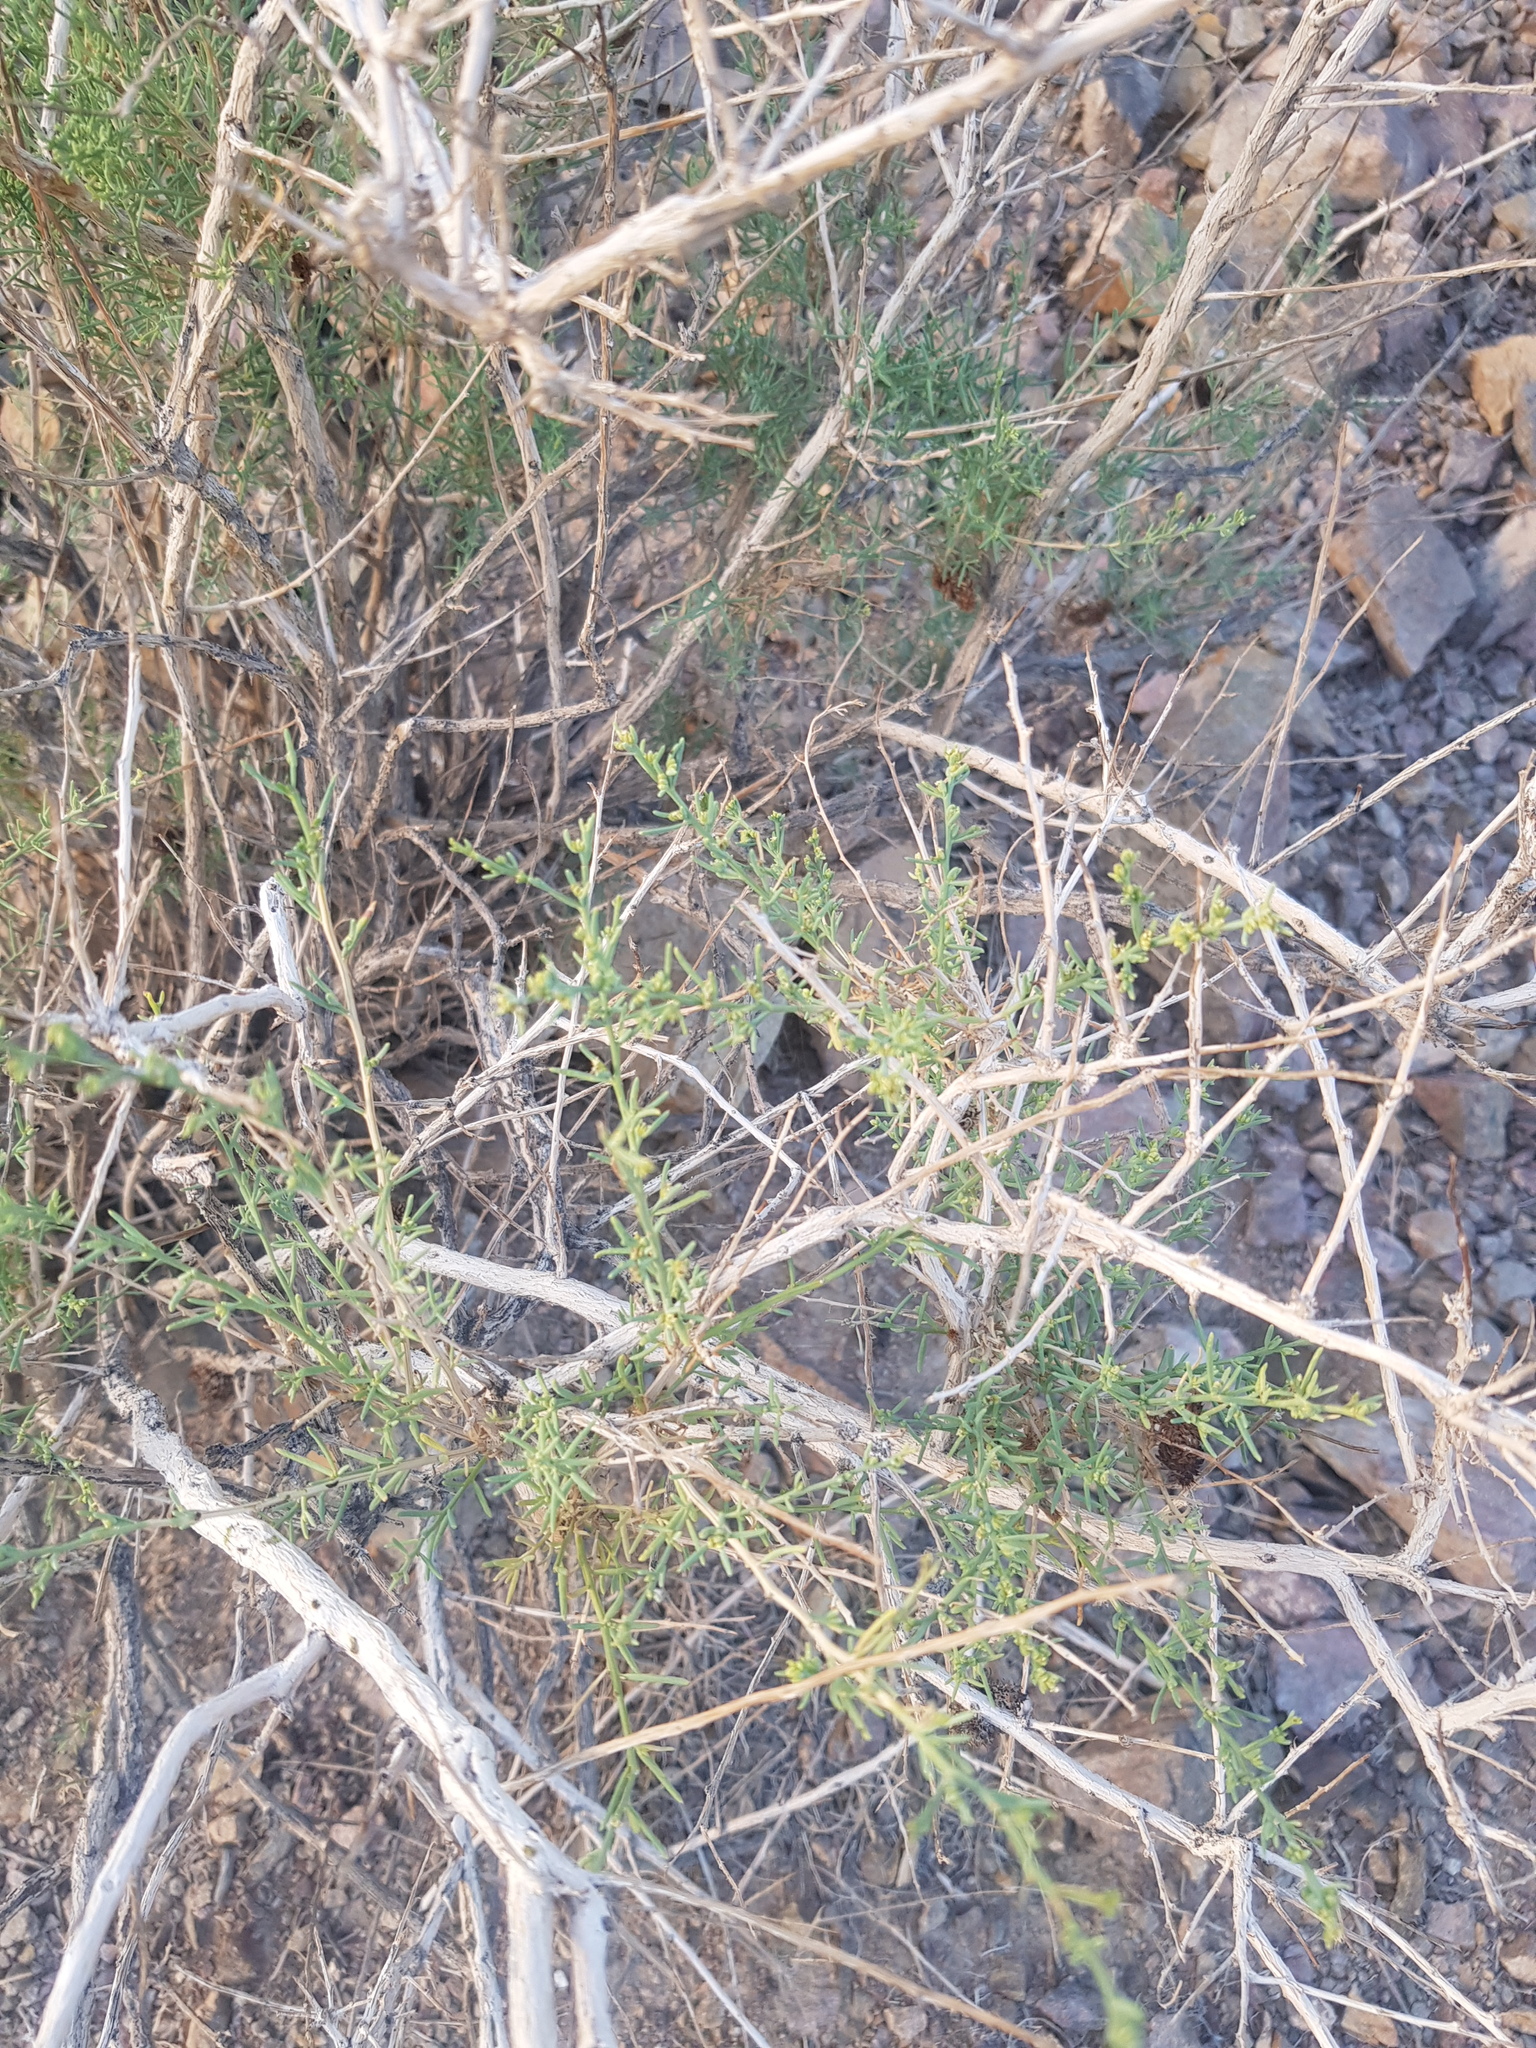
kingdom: Plantae
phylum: Tracheophyta
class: Magnoliopsida
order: Caryophyllales
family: Amaranthaceae
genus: Sympegma
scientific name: Sympegma regelii
